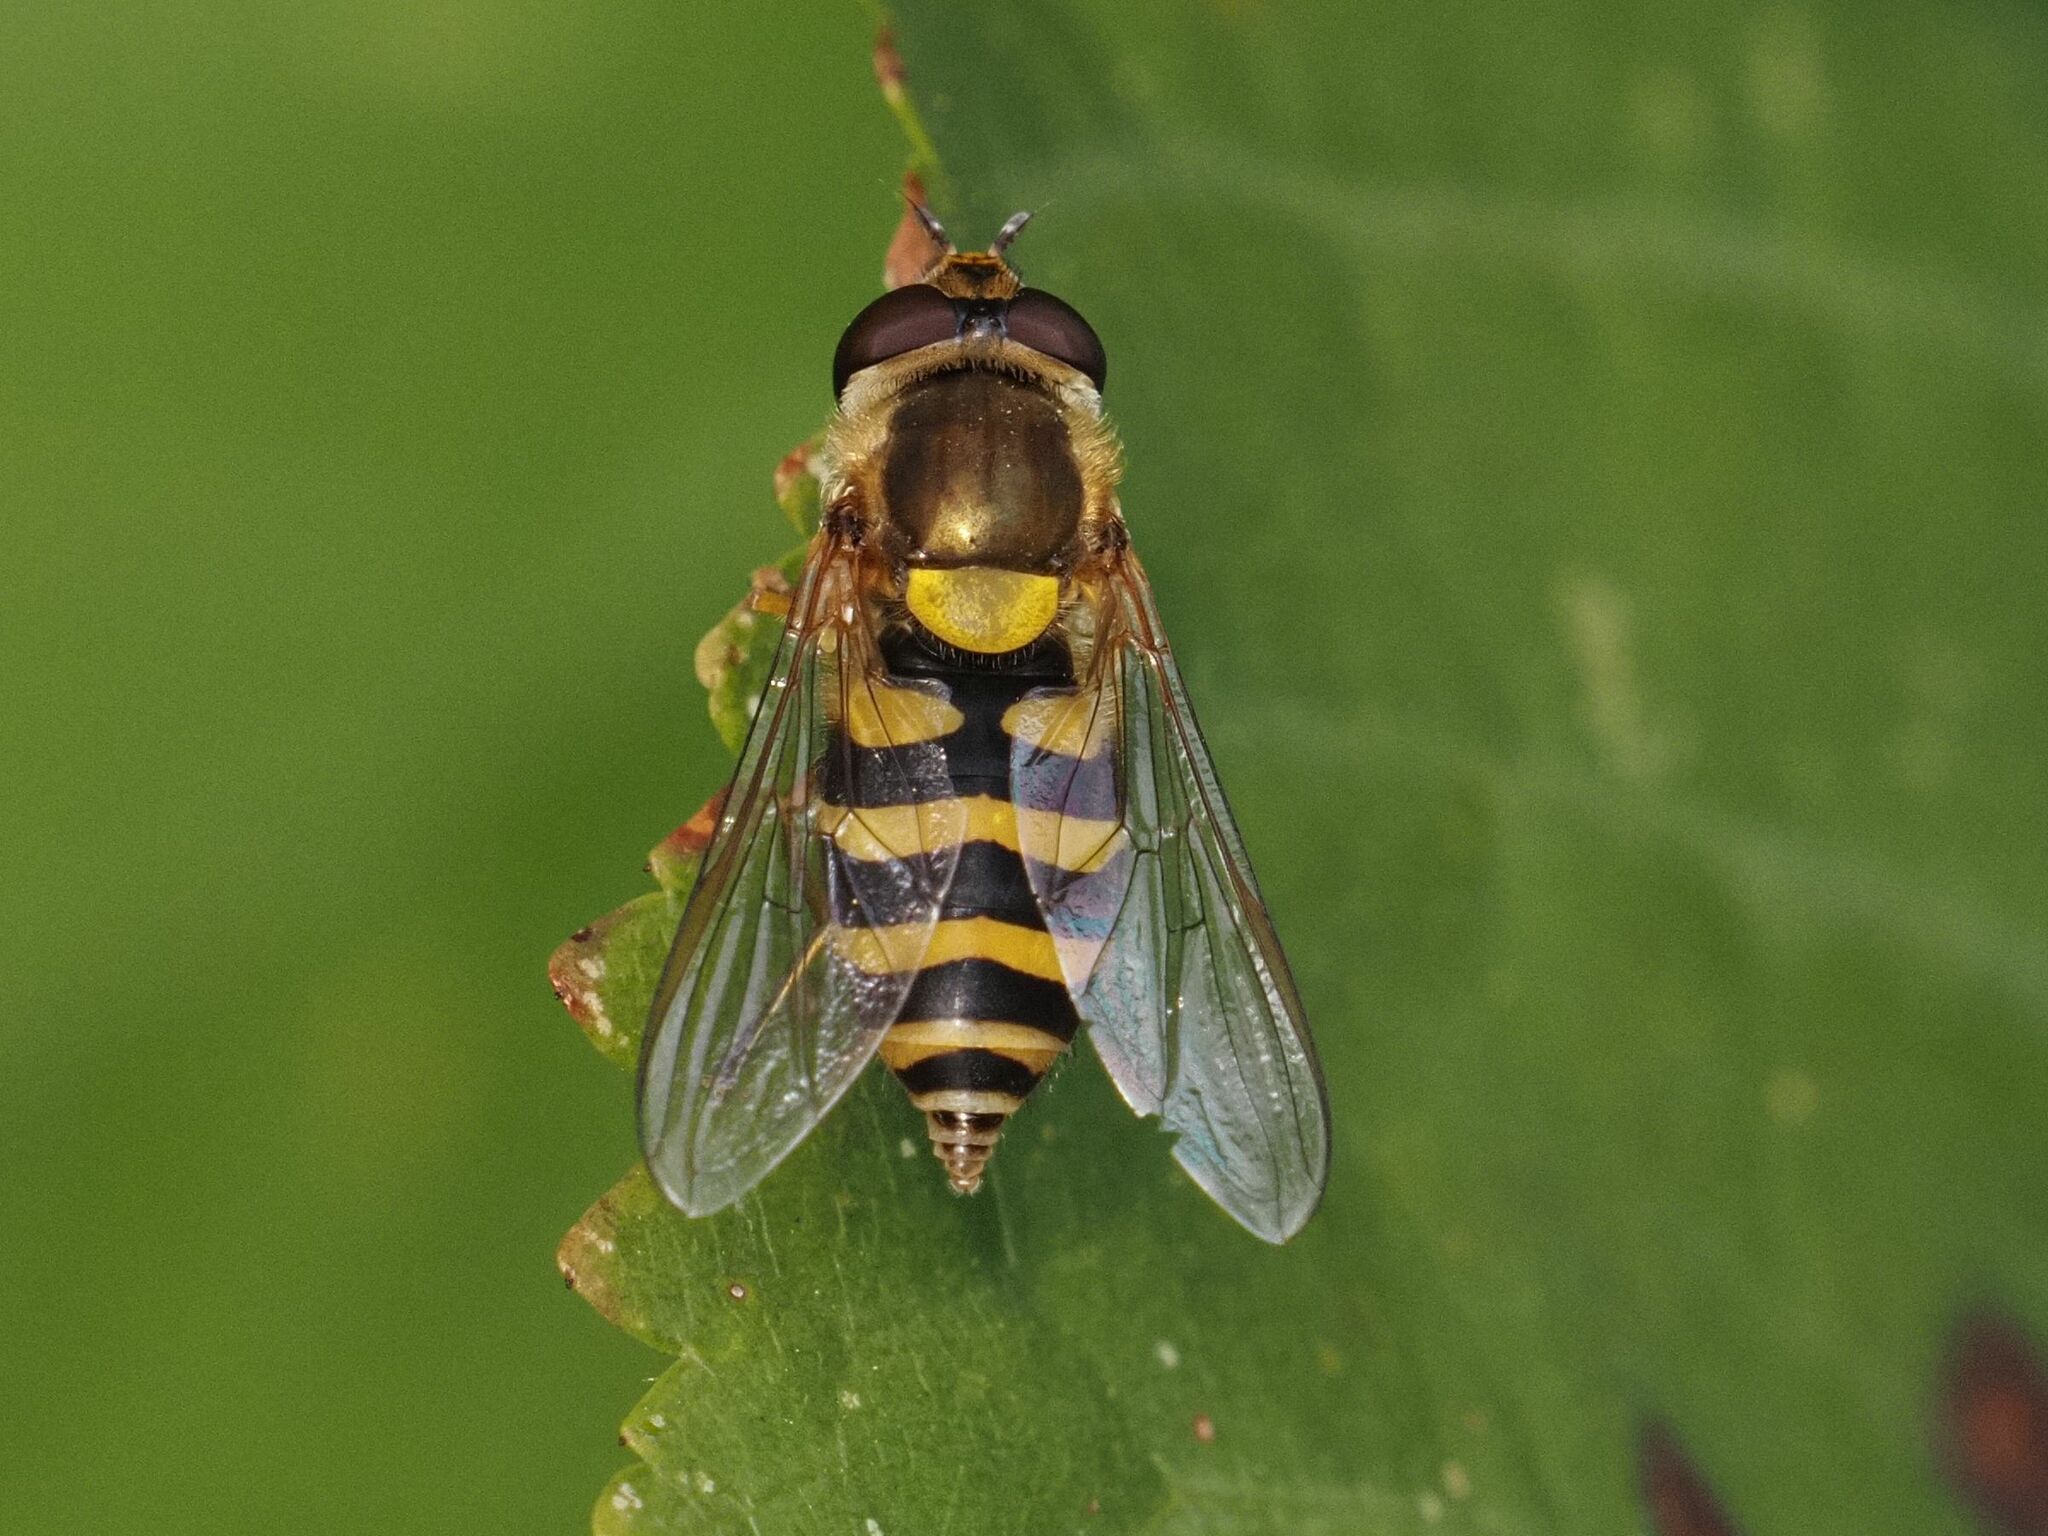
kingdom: Animalia
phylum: Arthropoda
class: Insecta
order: Diptera
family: Syrphidae
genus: Syrphus
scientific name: Syrphus
